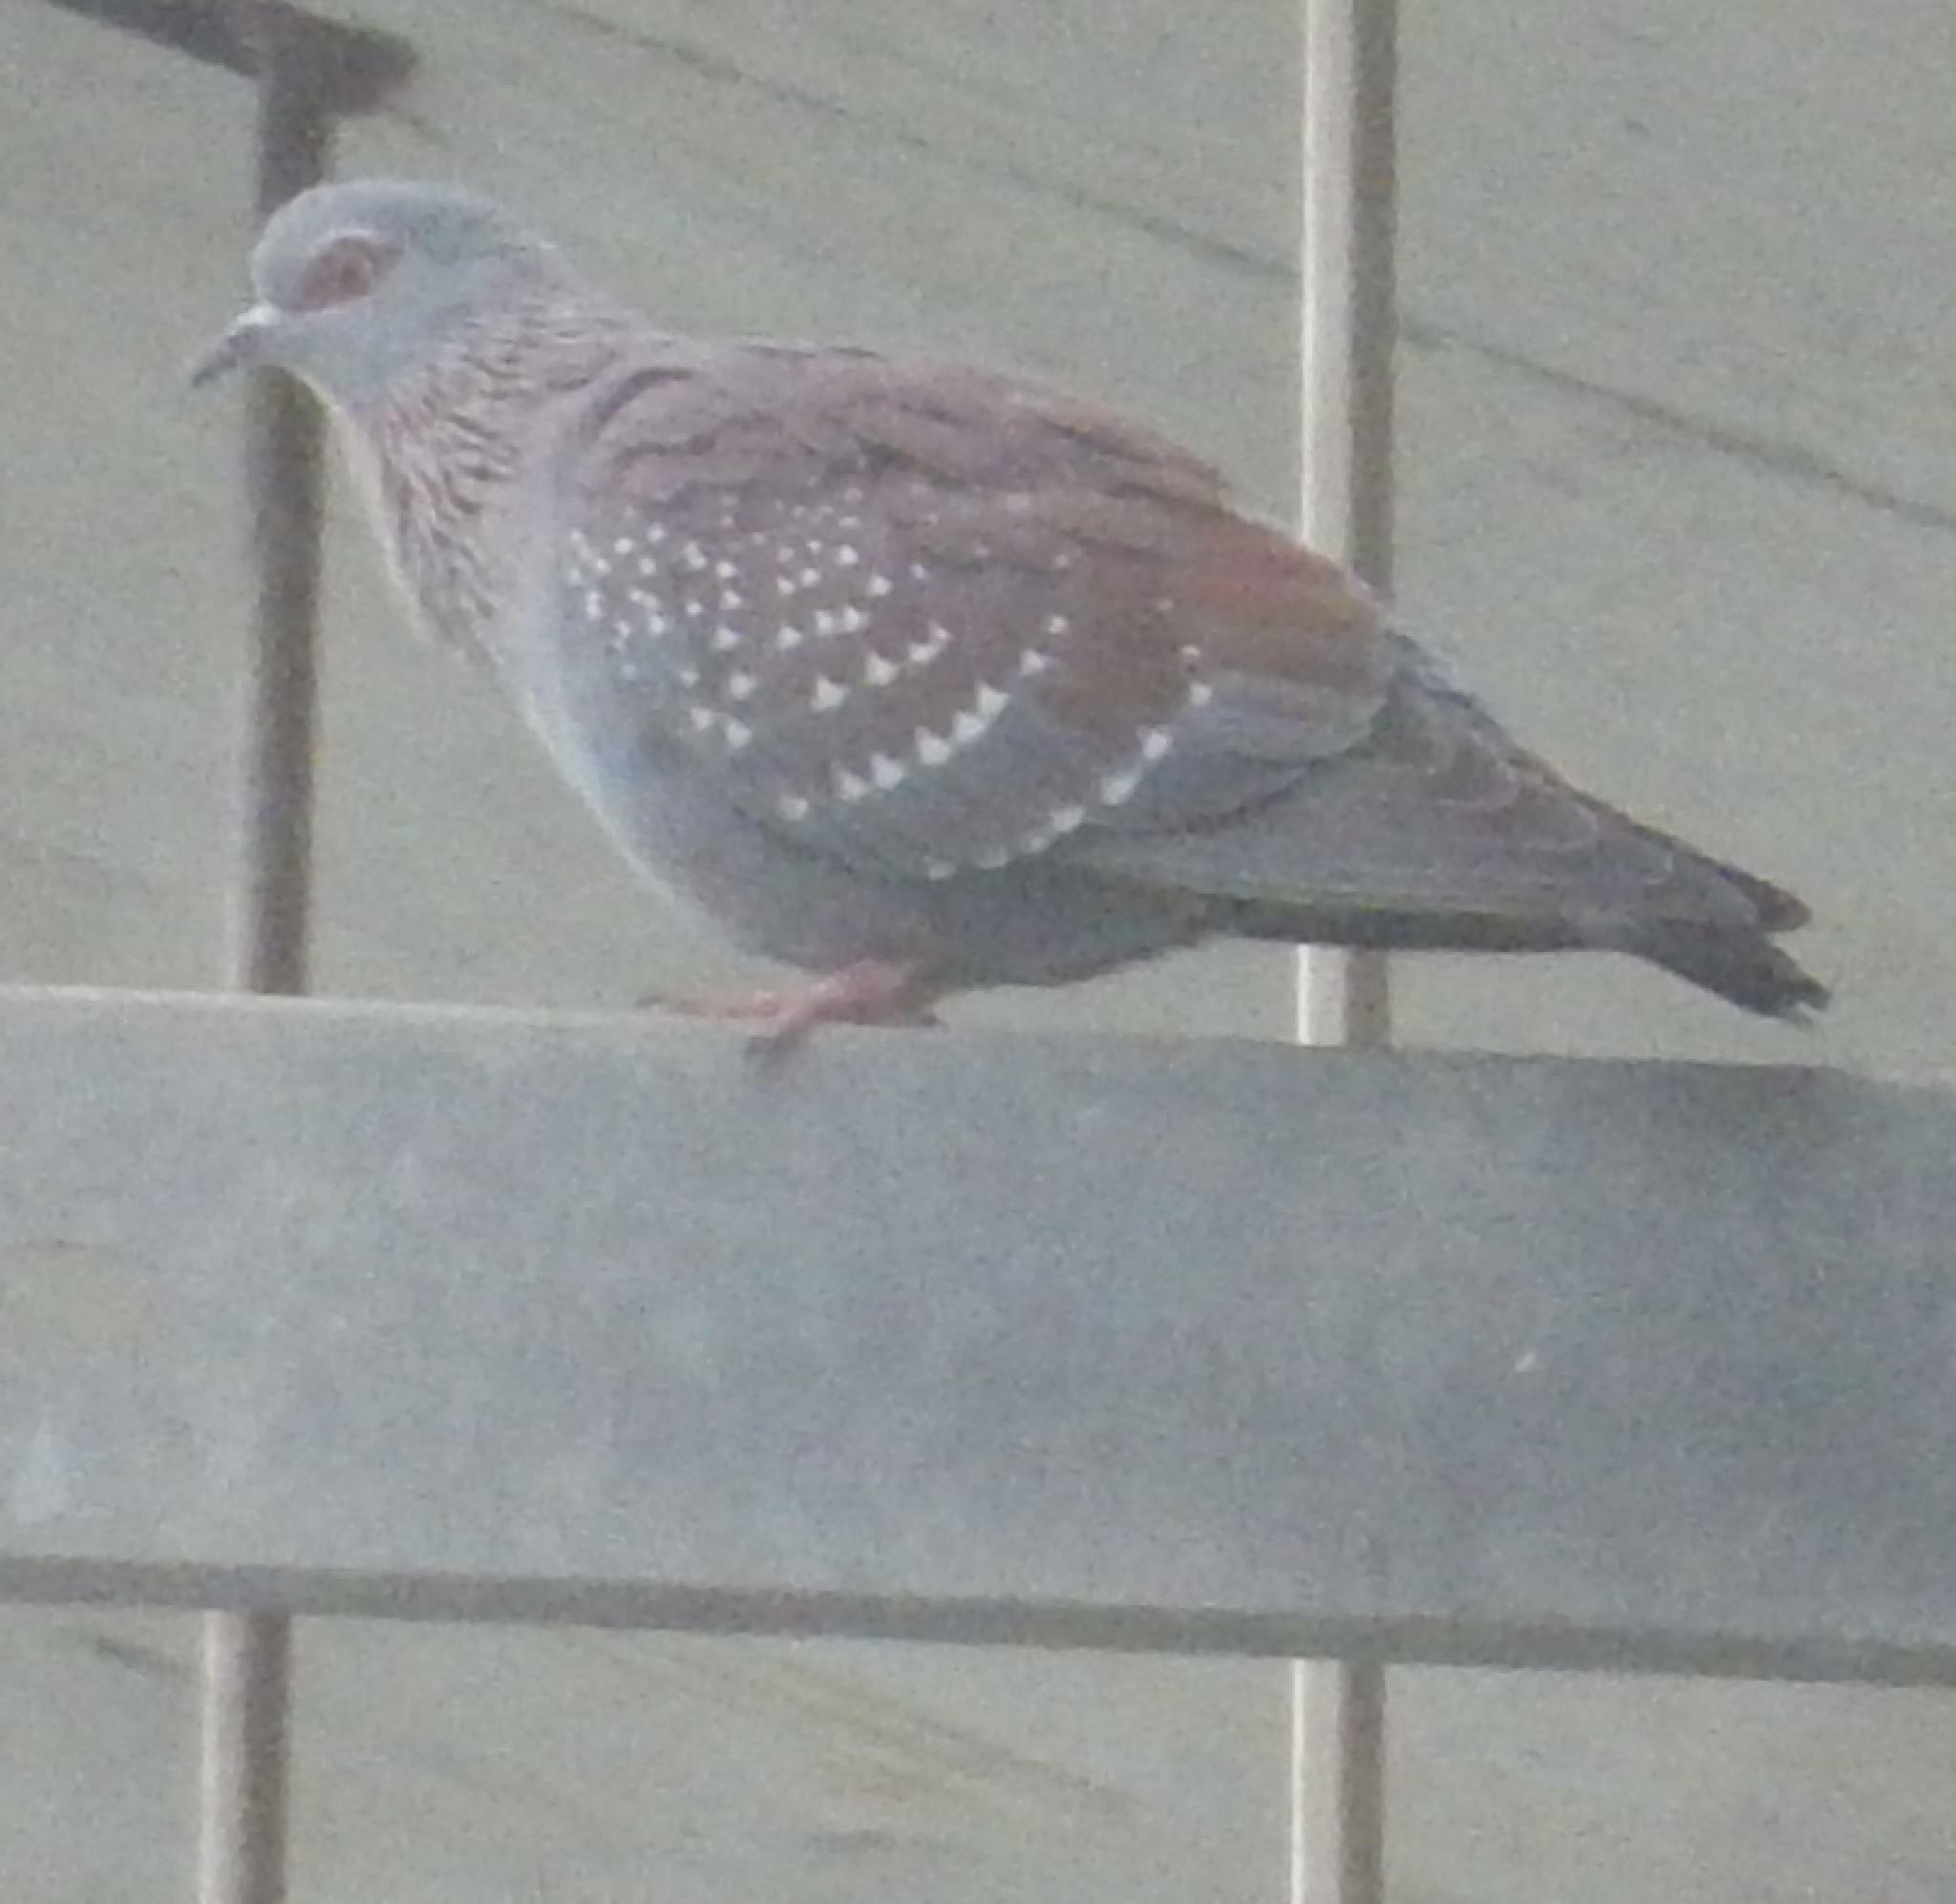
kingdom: Animalia
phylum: Chordata
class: Aves
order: Columbiformes
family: Columbidae
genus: Columba
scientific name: Columba guinea
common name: Speckled pigeon
